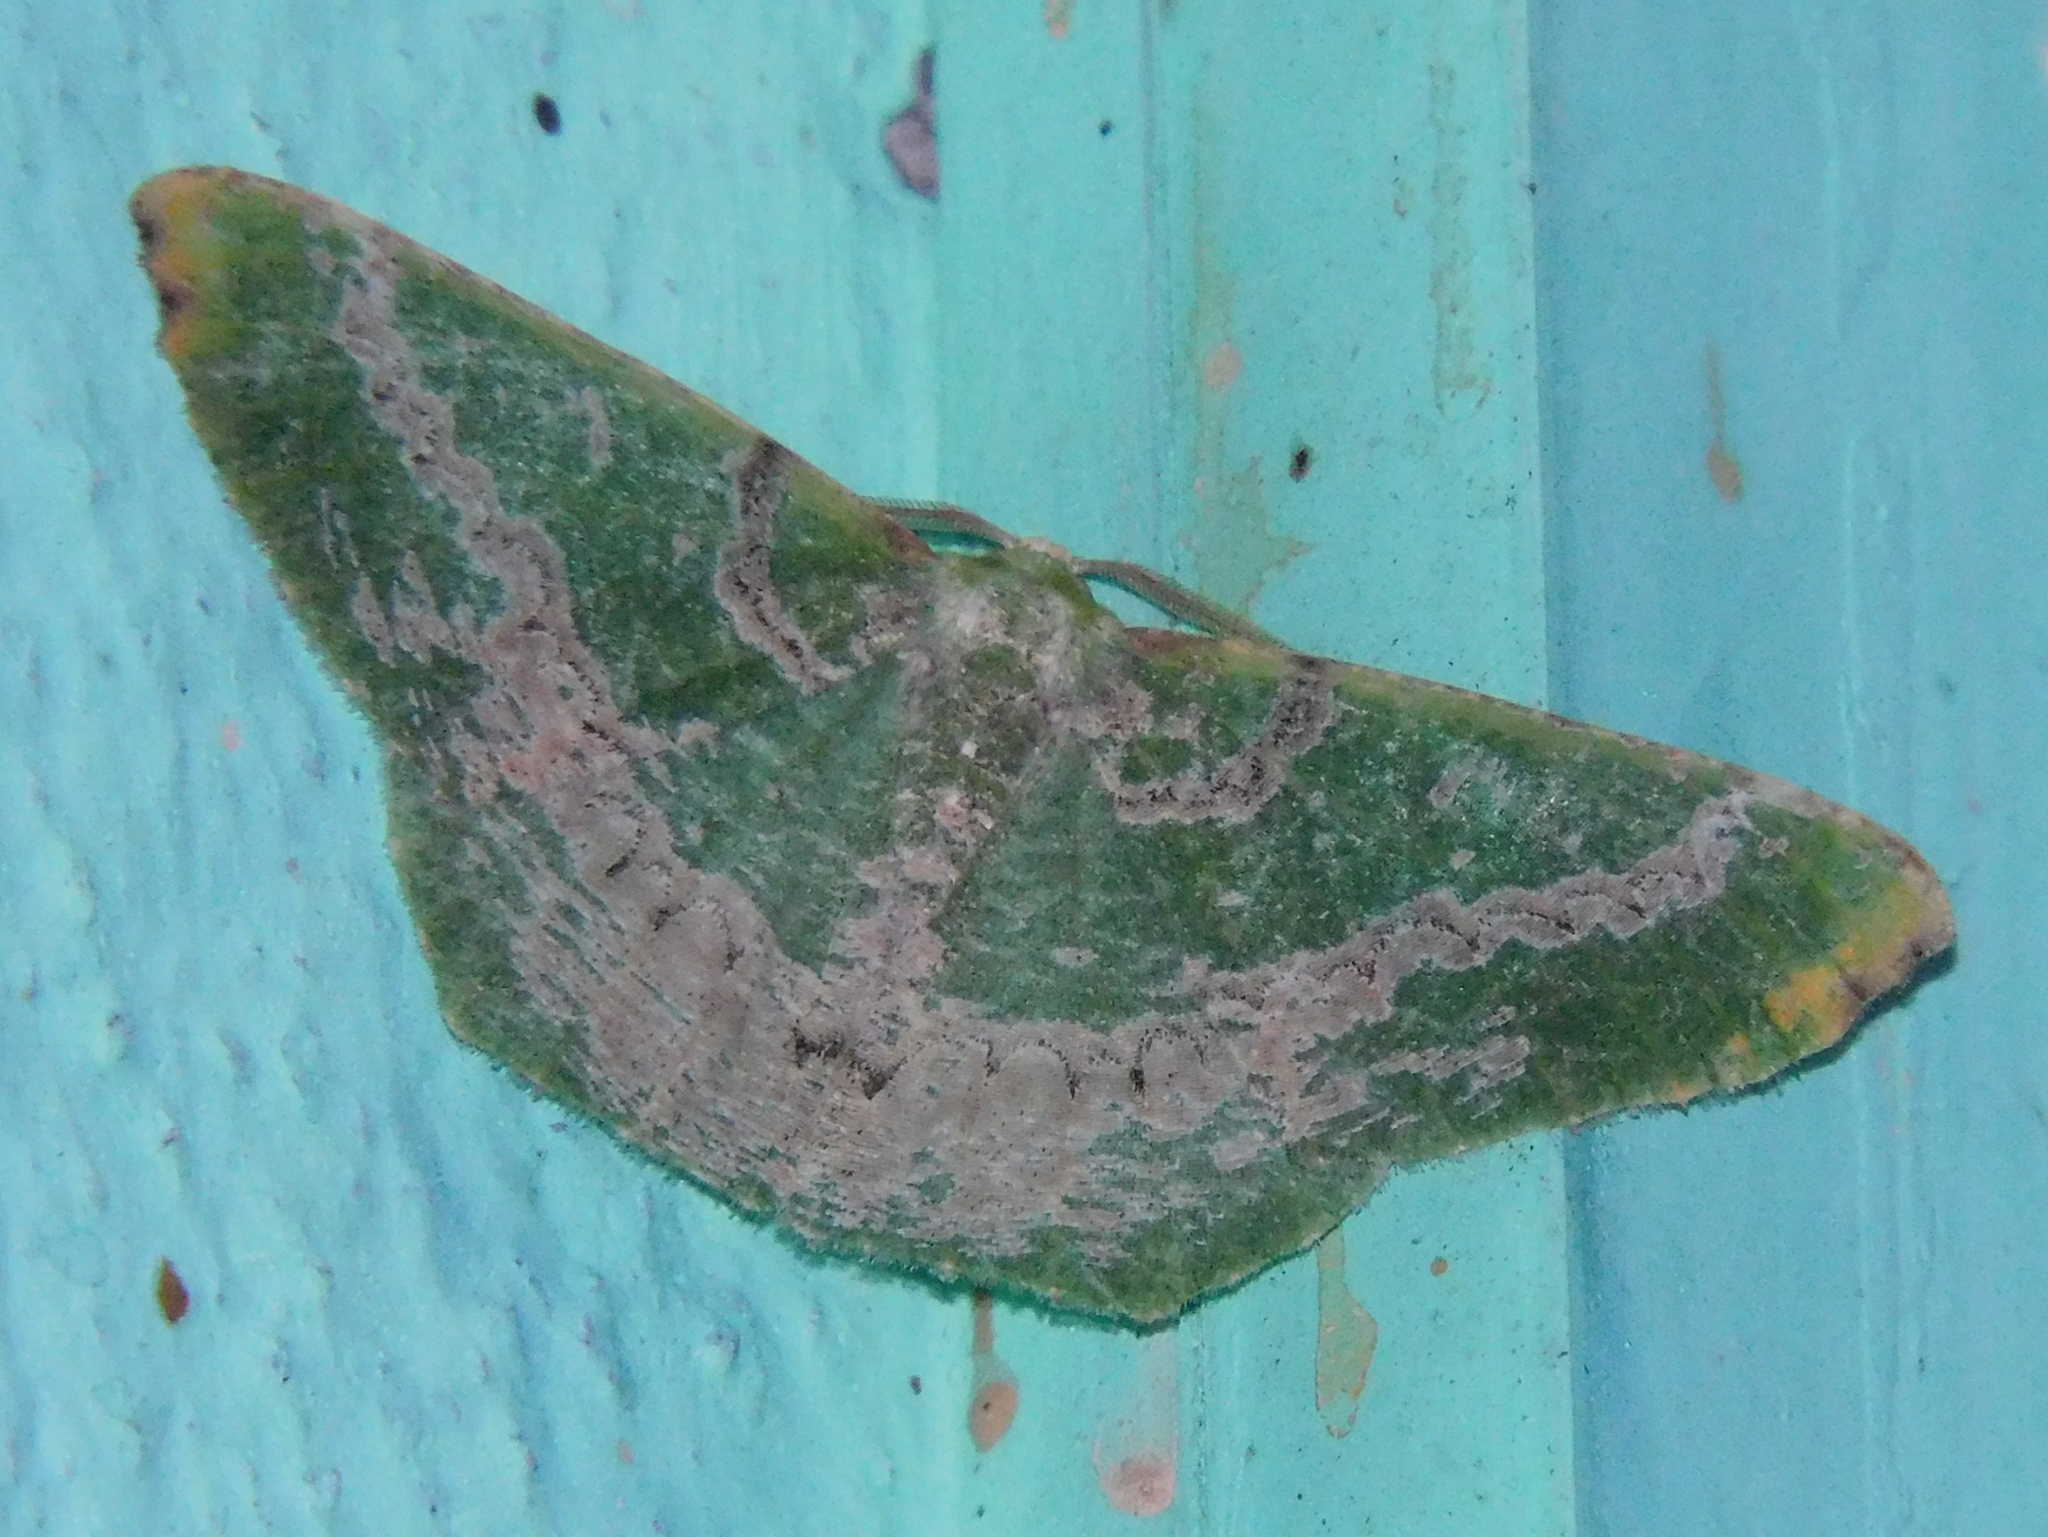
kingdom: Animalia
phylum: Arthropoda
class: Insecta
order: Lepidoptera
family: Geometridae
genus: Chloroglyphica
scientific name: Chloroglyphica variegata
